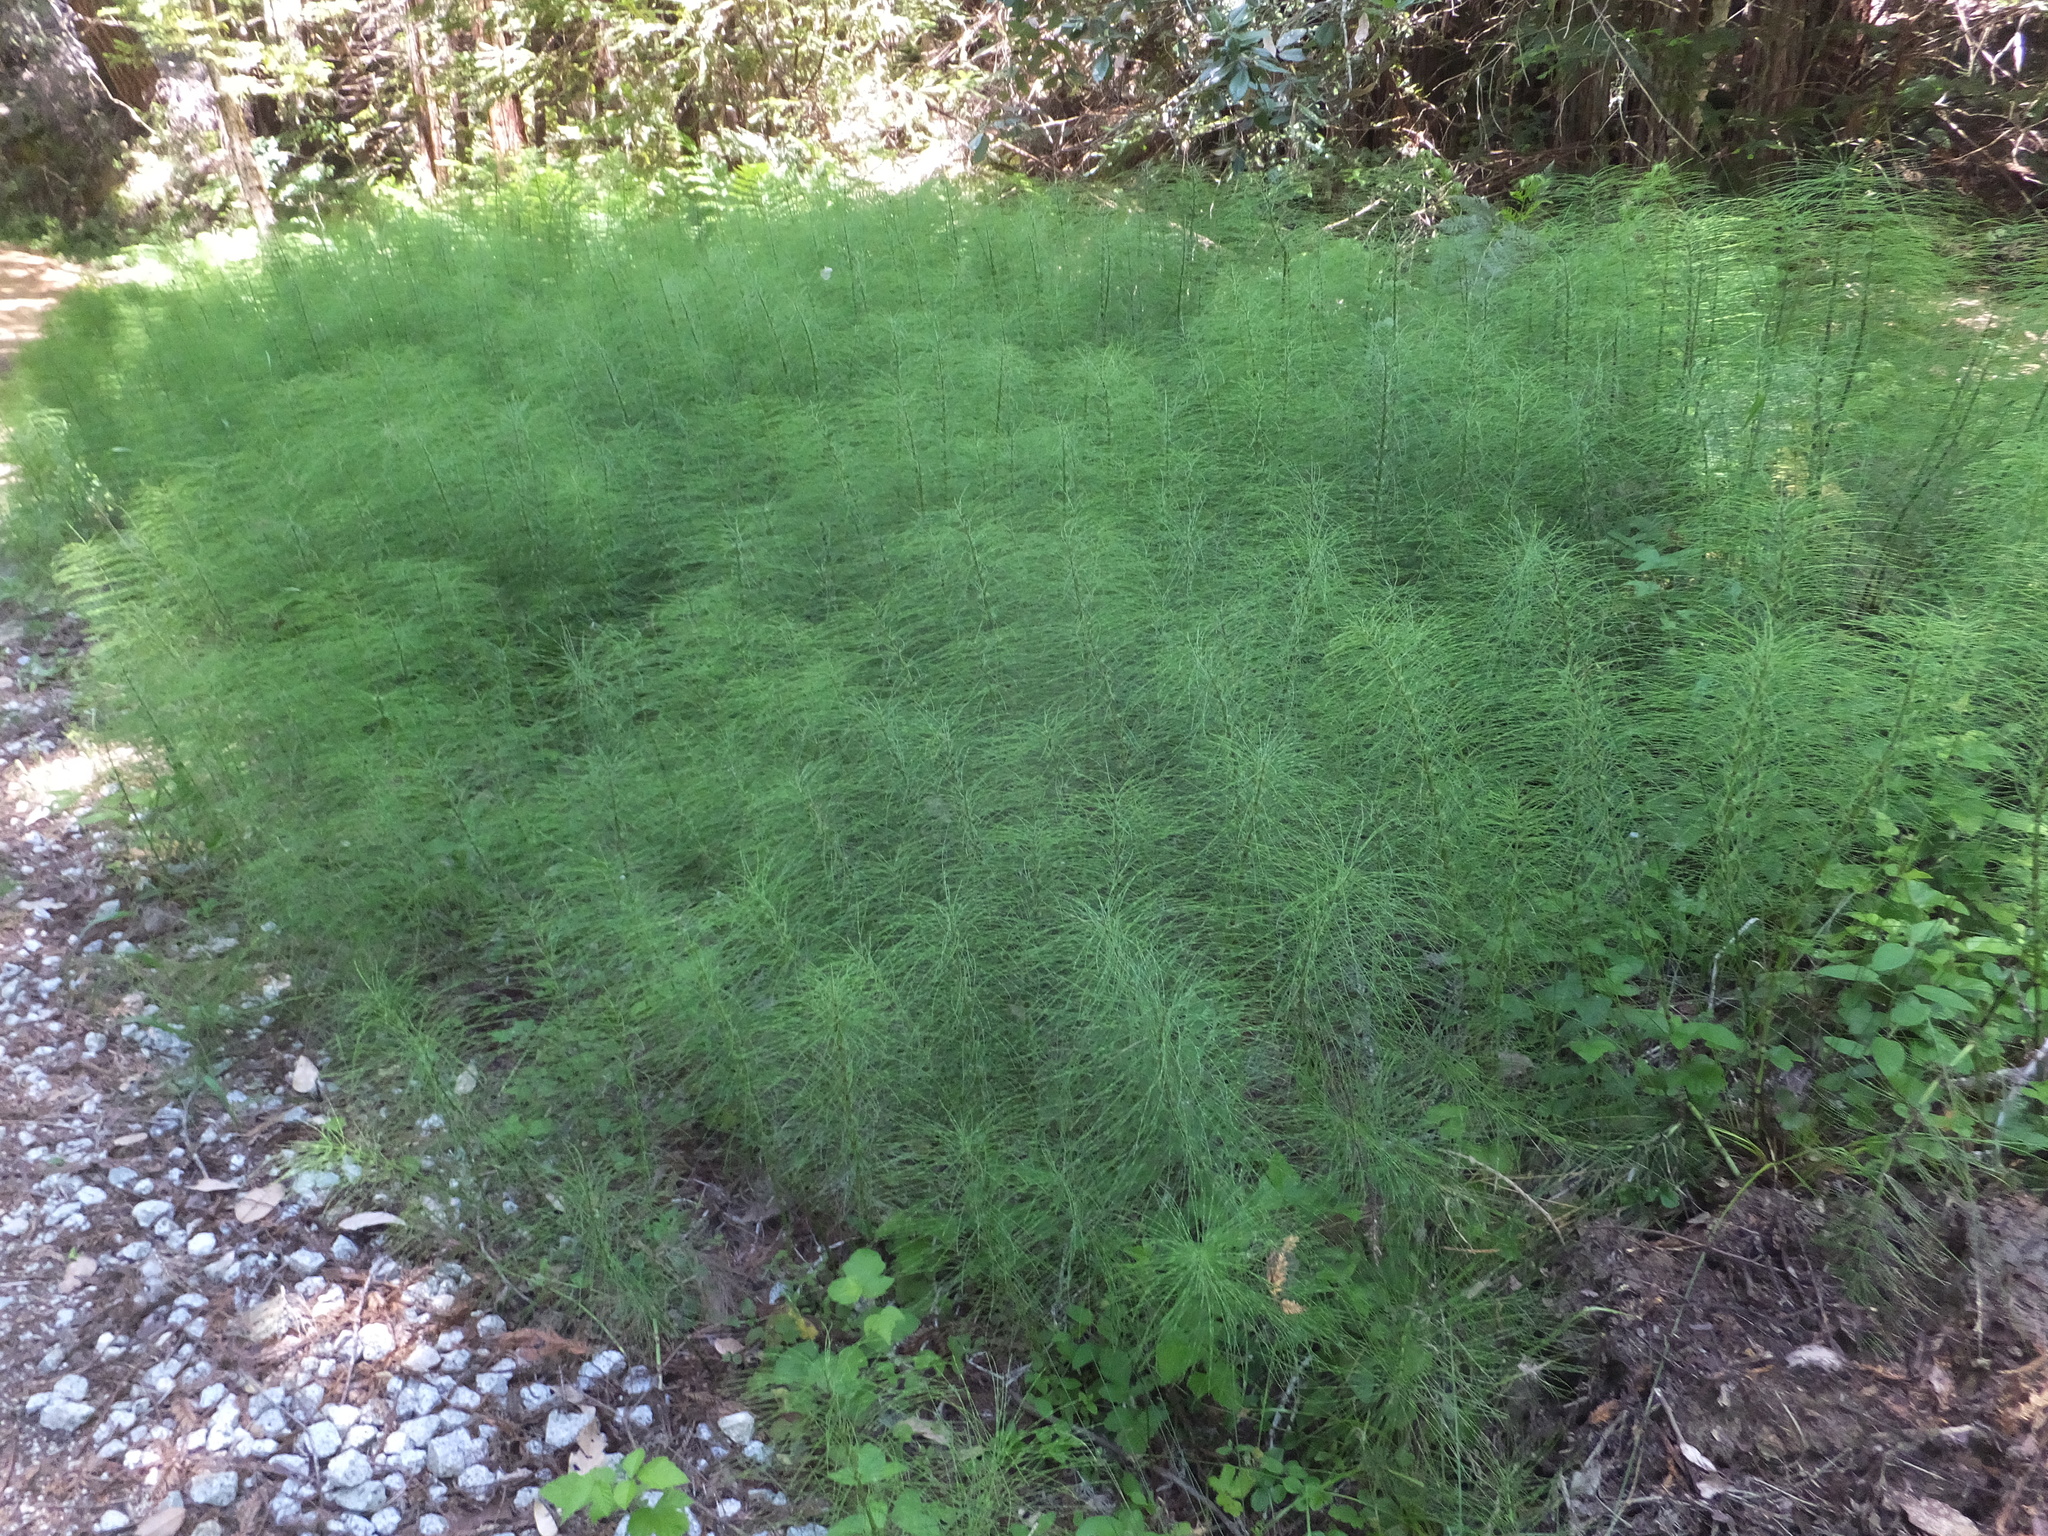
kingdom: Plantae
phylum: Tracheophyta
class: Polypodiopsida
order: Equisetales
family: Equisetaceae
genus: Equisetum
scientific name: Equisetum telmateia
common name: Great horsetail
